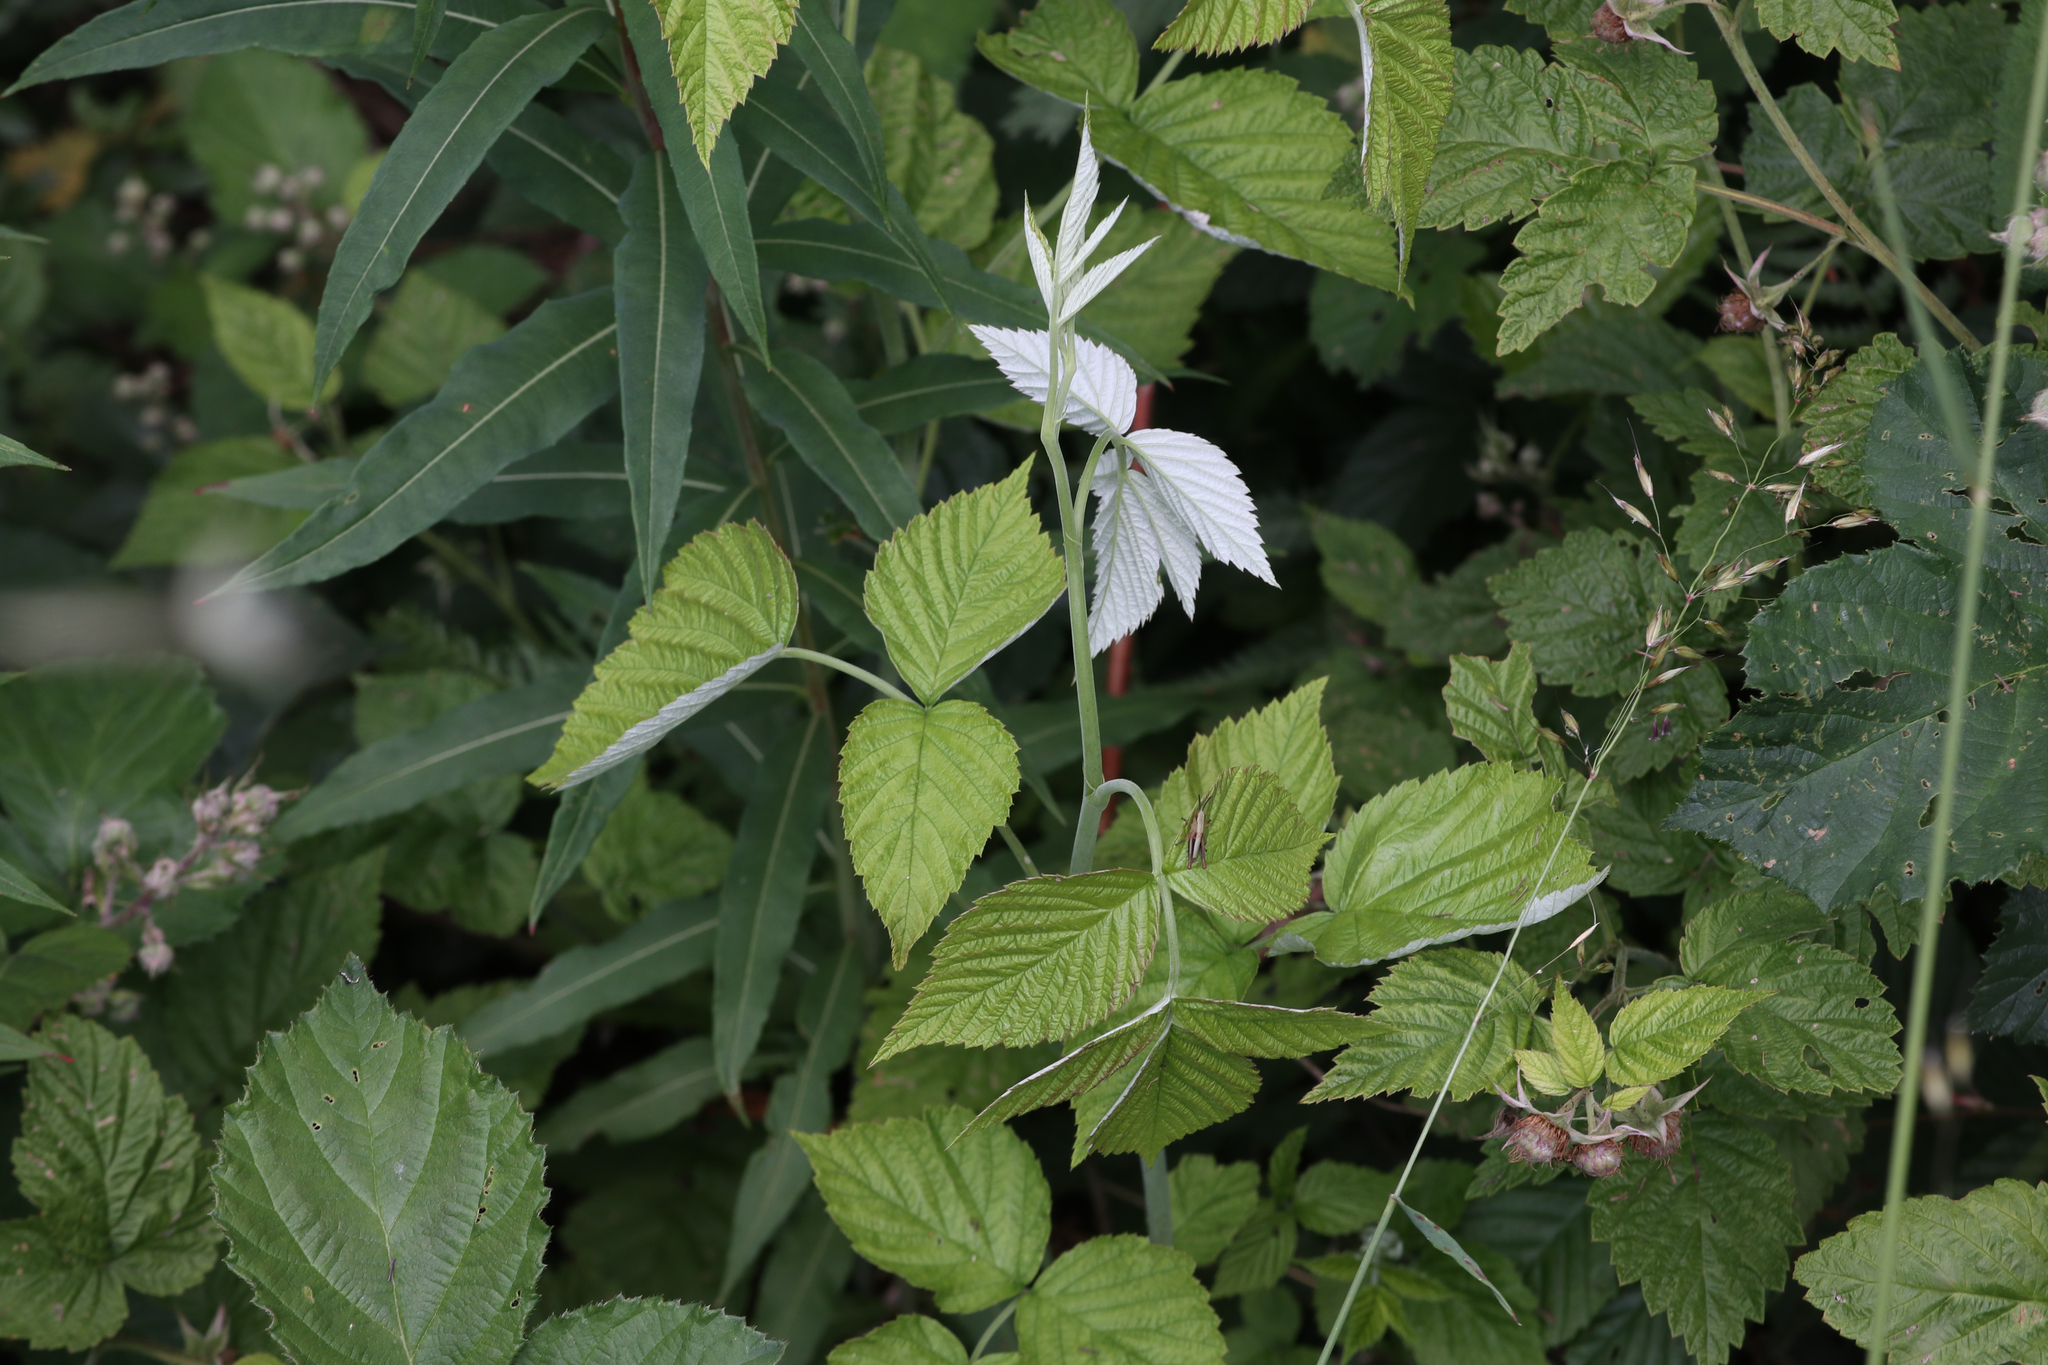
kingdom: Plantae
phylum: Tracheophyta
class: Magnoliopsida
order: Rosales
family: Rosaceae
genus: Rubus
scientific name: Rubus idaeus
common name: Raspberry
